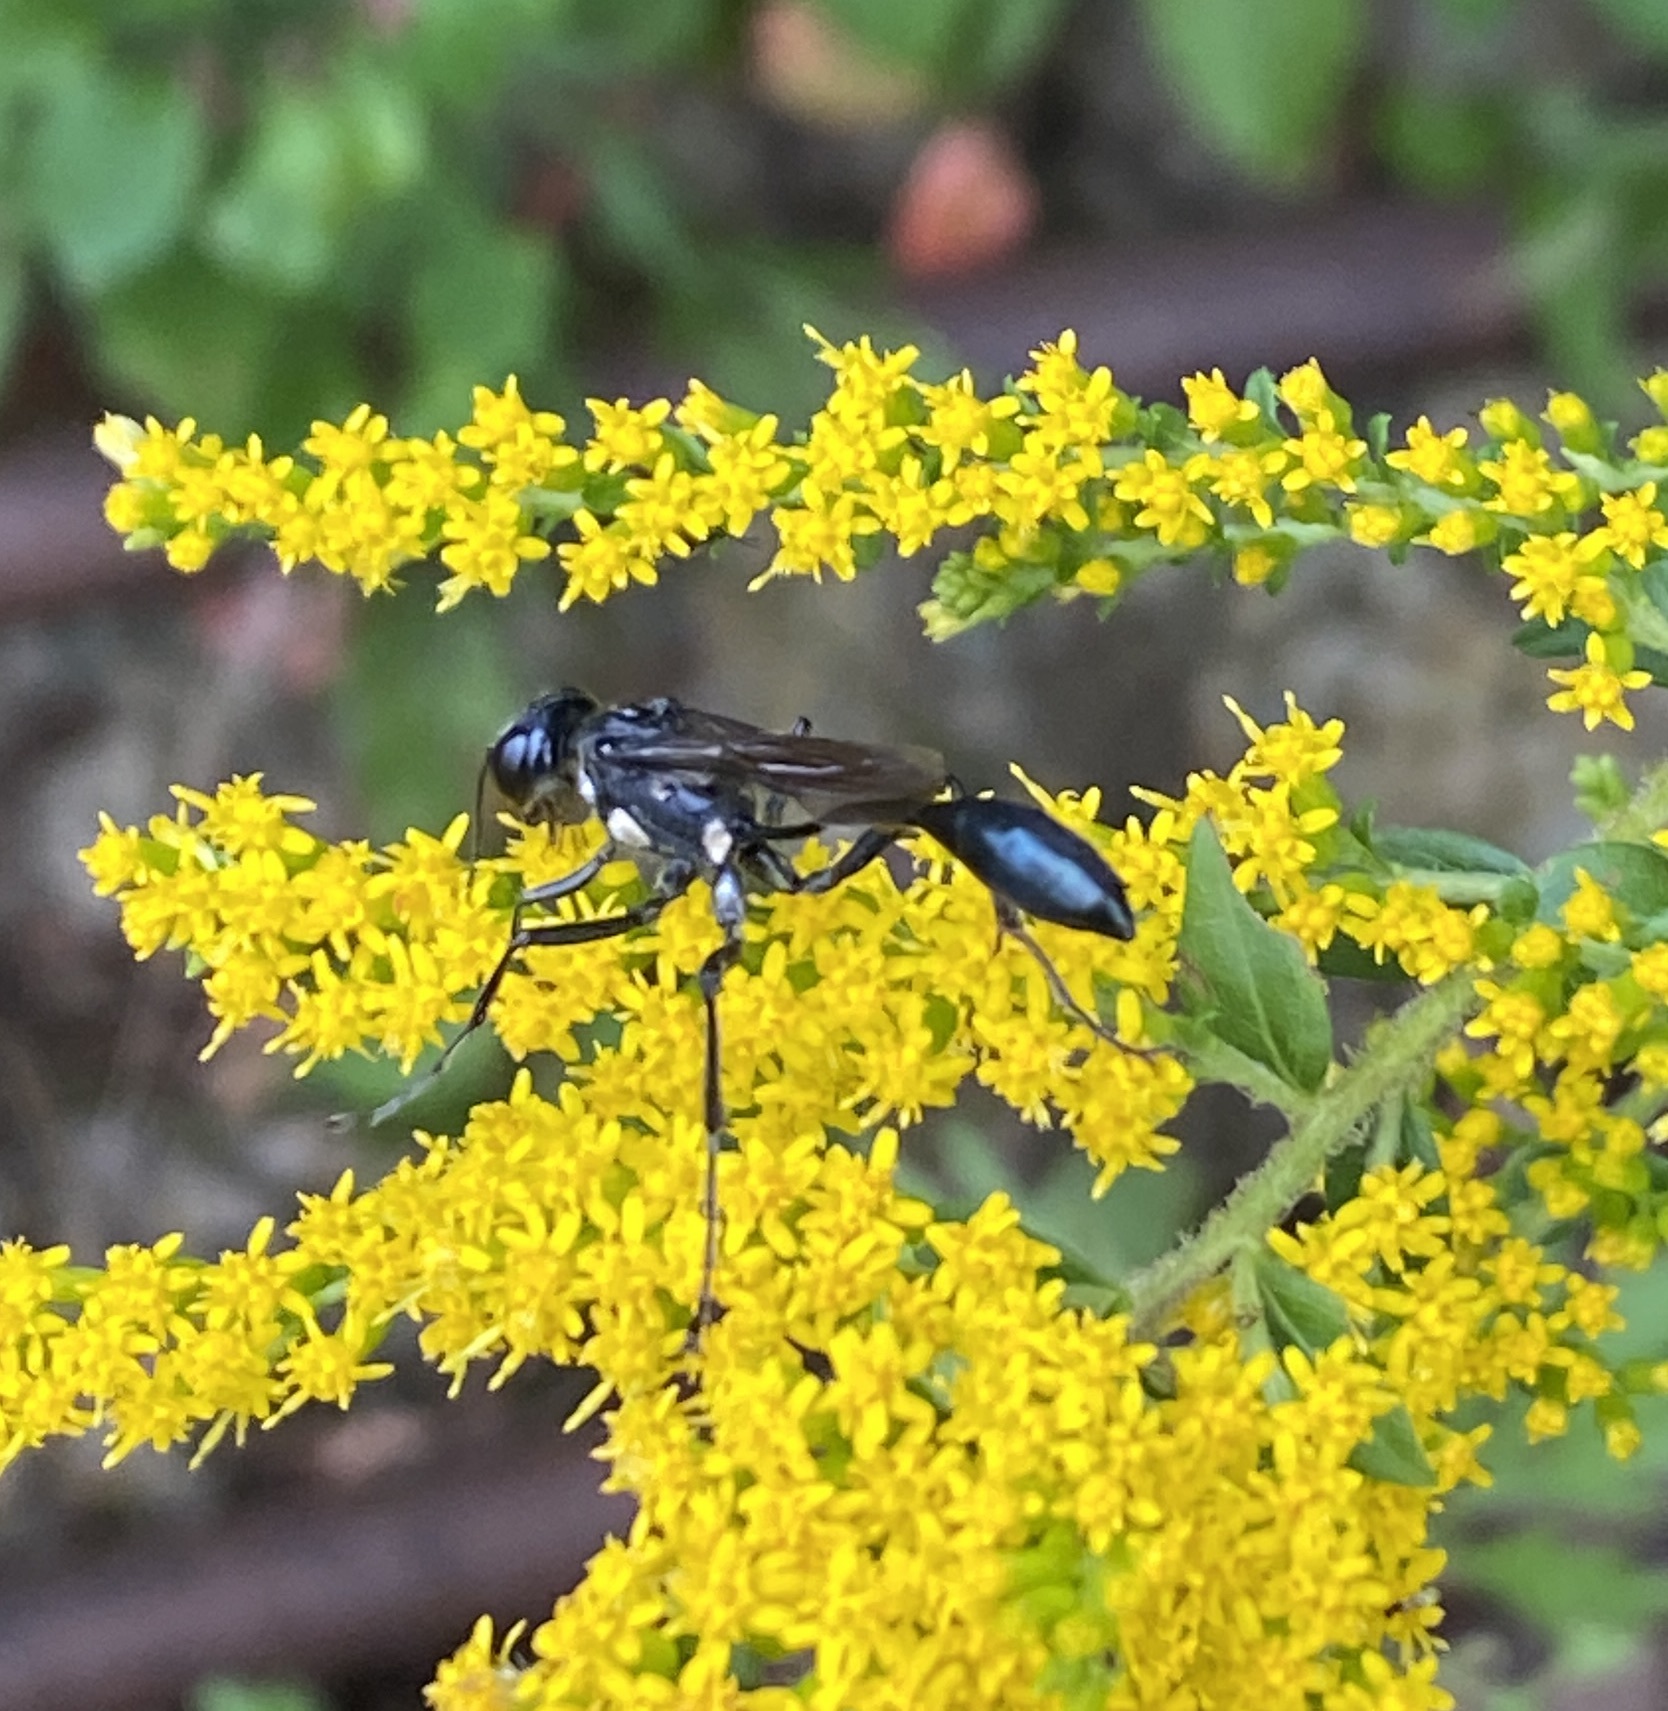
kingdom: Animalia
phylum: Arthropoda
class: Insecta
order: Hymenoptera
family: Sphecidae
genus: Eremnophila
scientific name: Eremnophila aureonotata
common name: Gold-marked thread-waisted wasp
